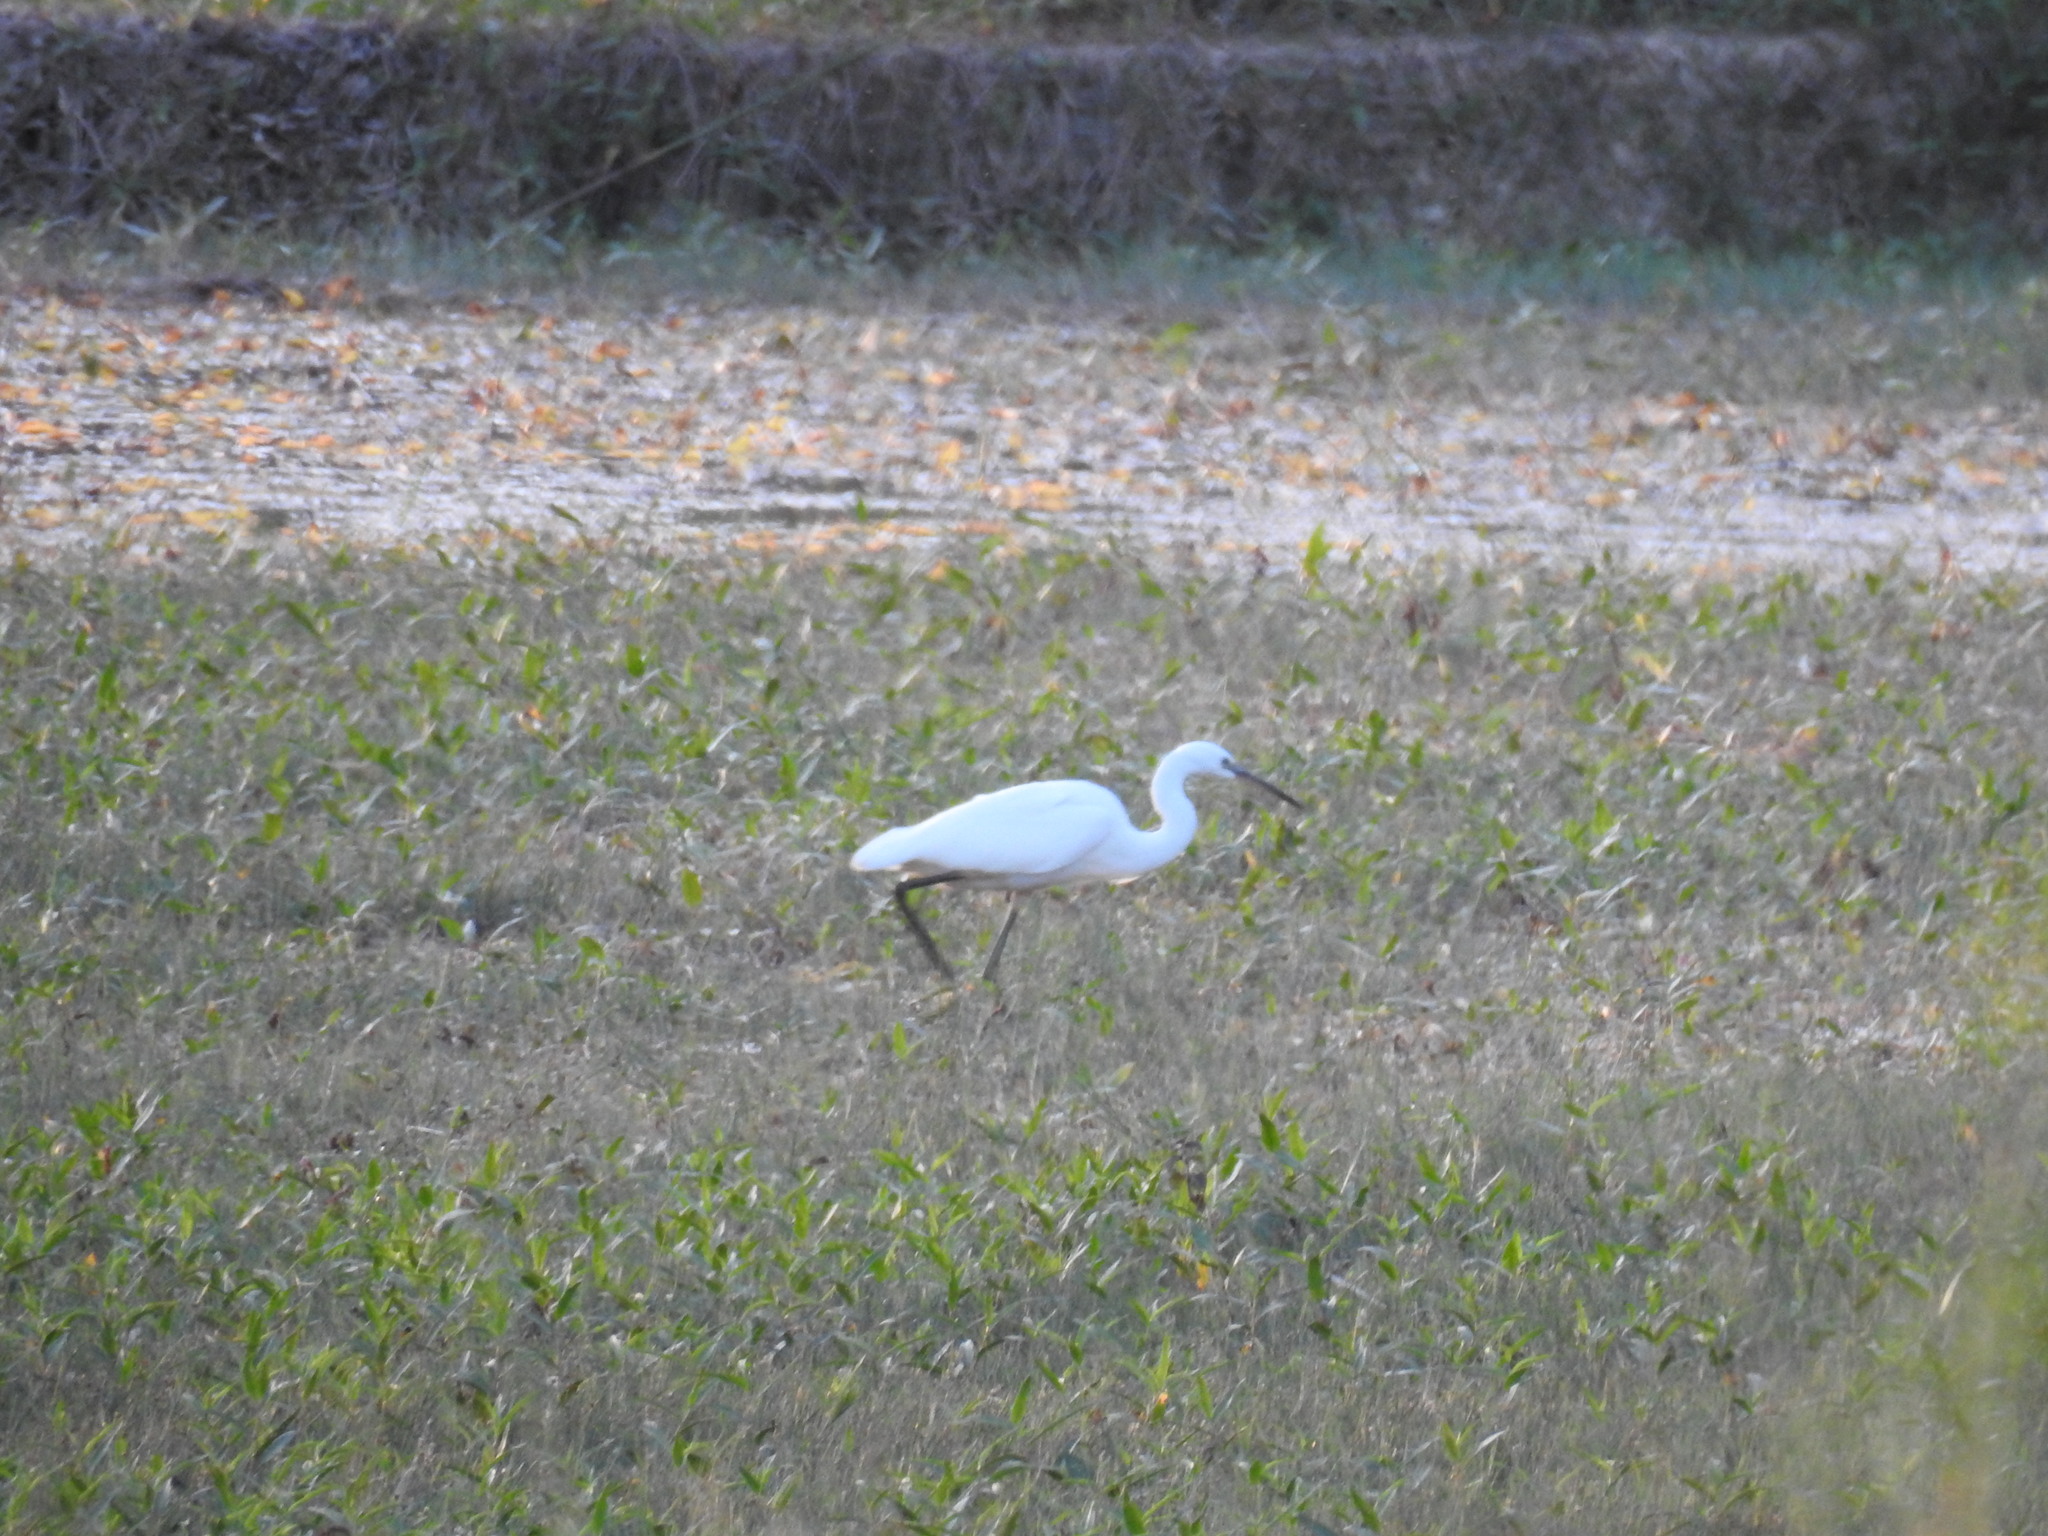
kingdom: Animalia
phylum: Chordata
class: Aves
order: Pelecaniformes
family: Ardeidae
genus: Egretta
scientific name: Egretta garzetta
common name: Little egret
